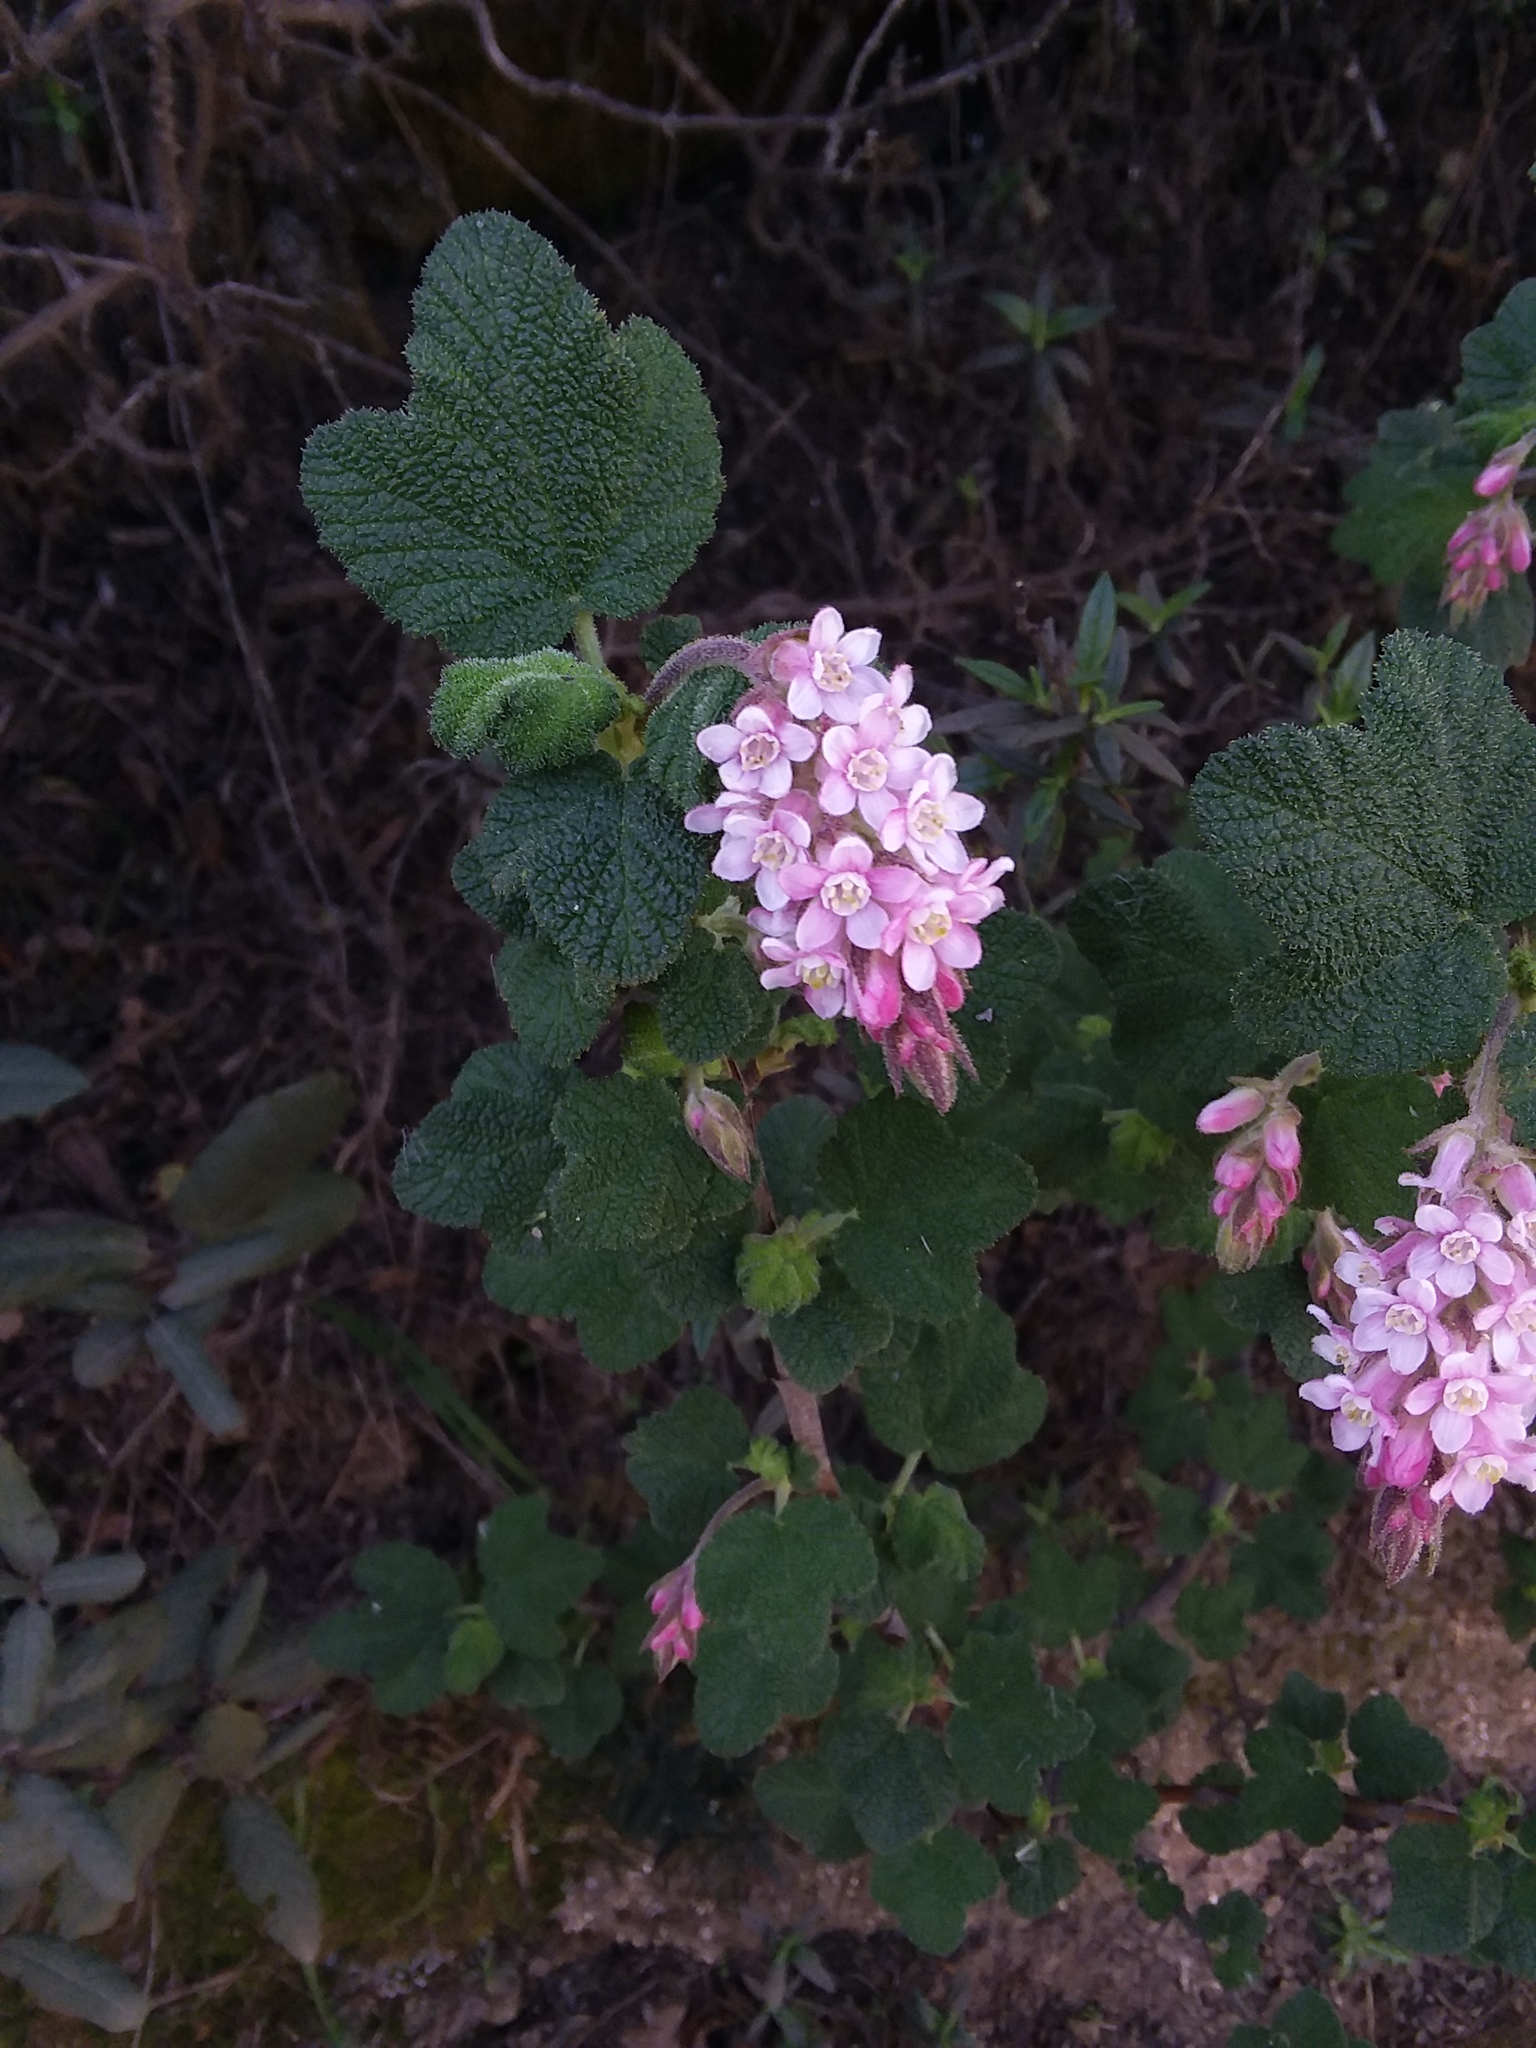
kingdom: Plantae
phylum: Tracheophyta
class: Magnoliopsida
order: Saxifragales
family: Grossulariaceae
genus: Ribes
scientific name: Ribes malvaceum
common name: Chaparral currant
